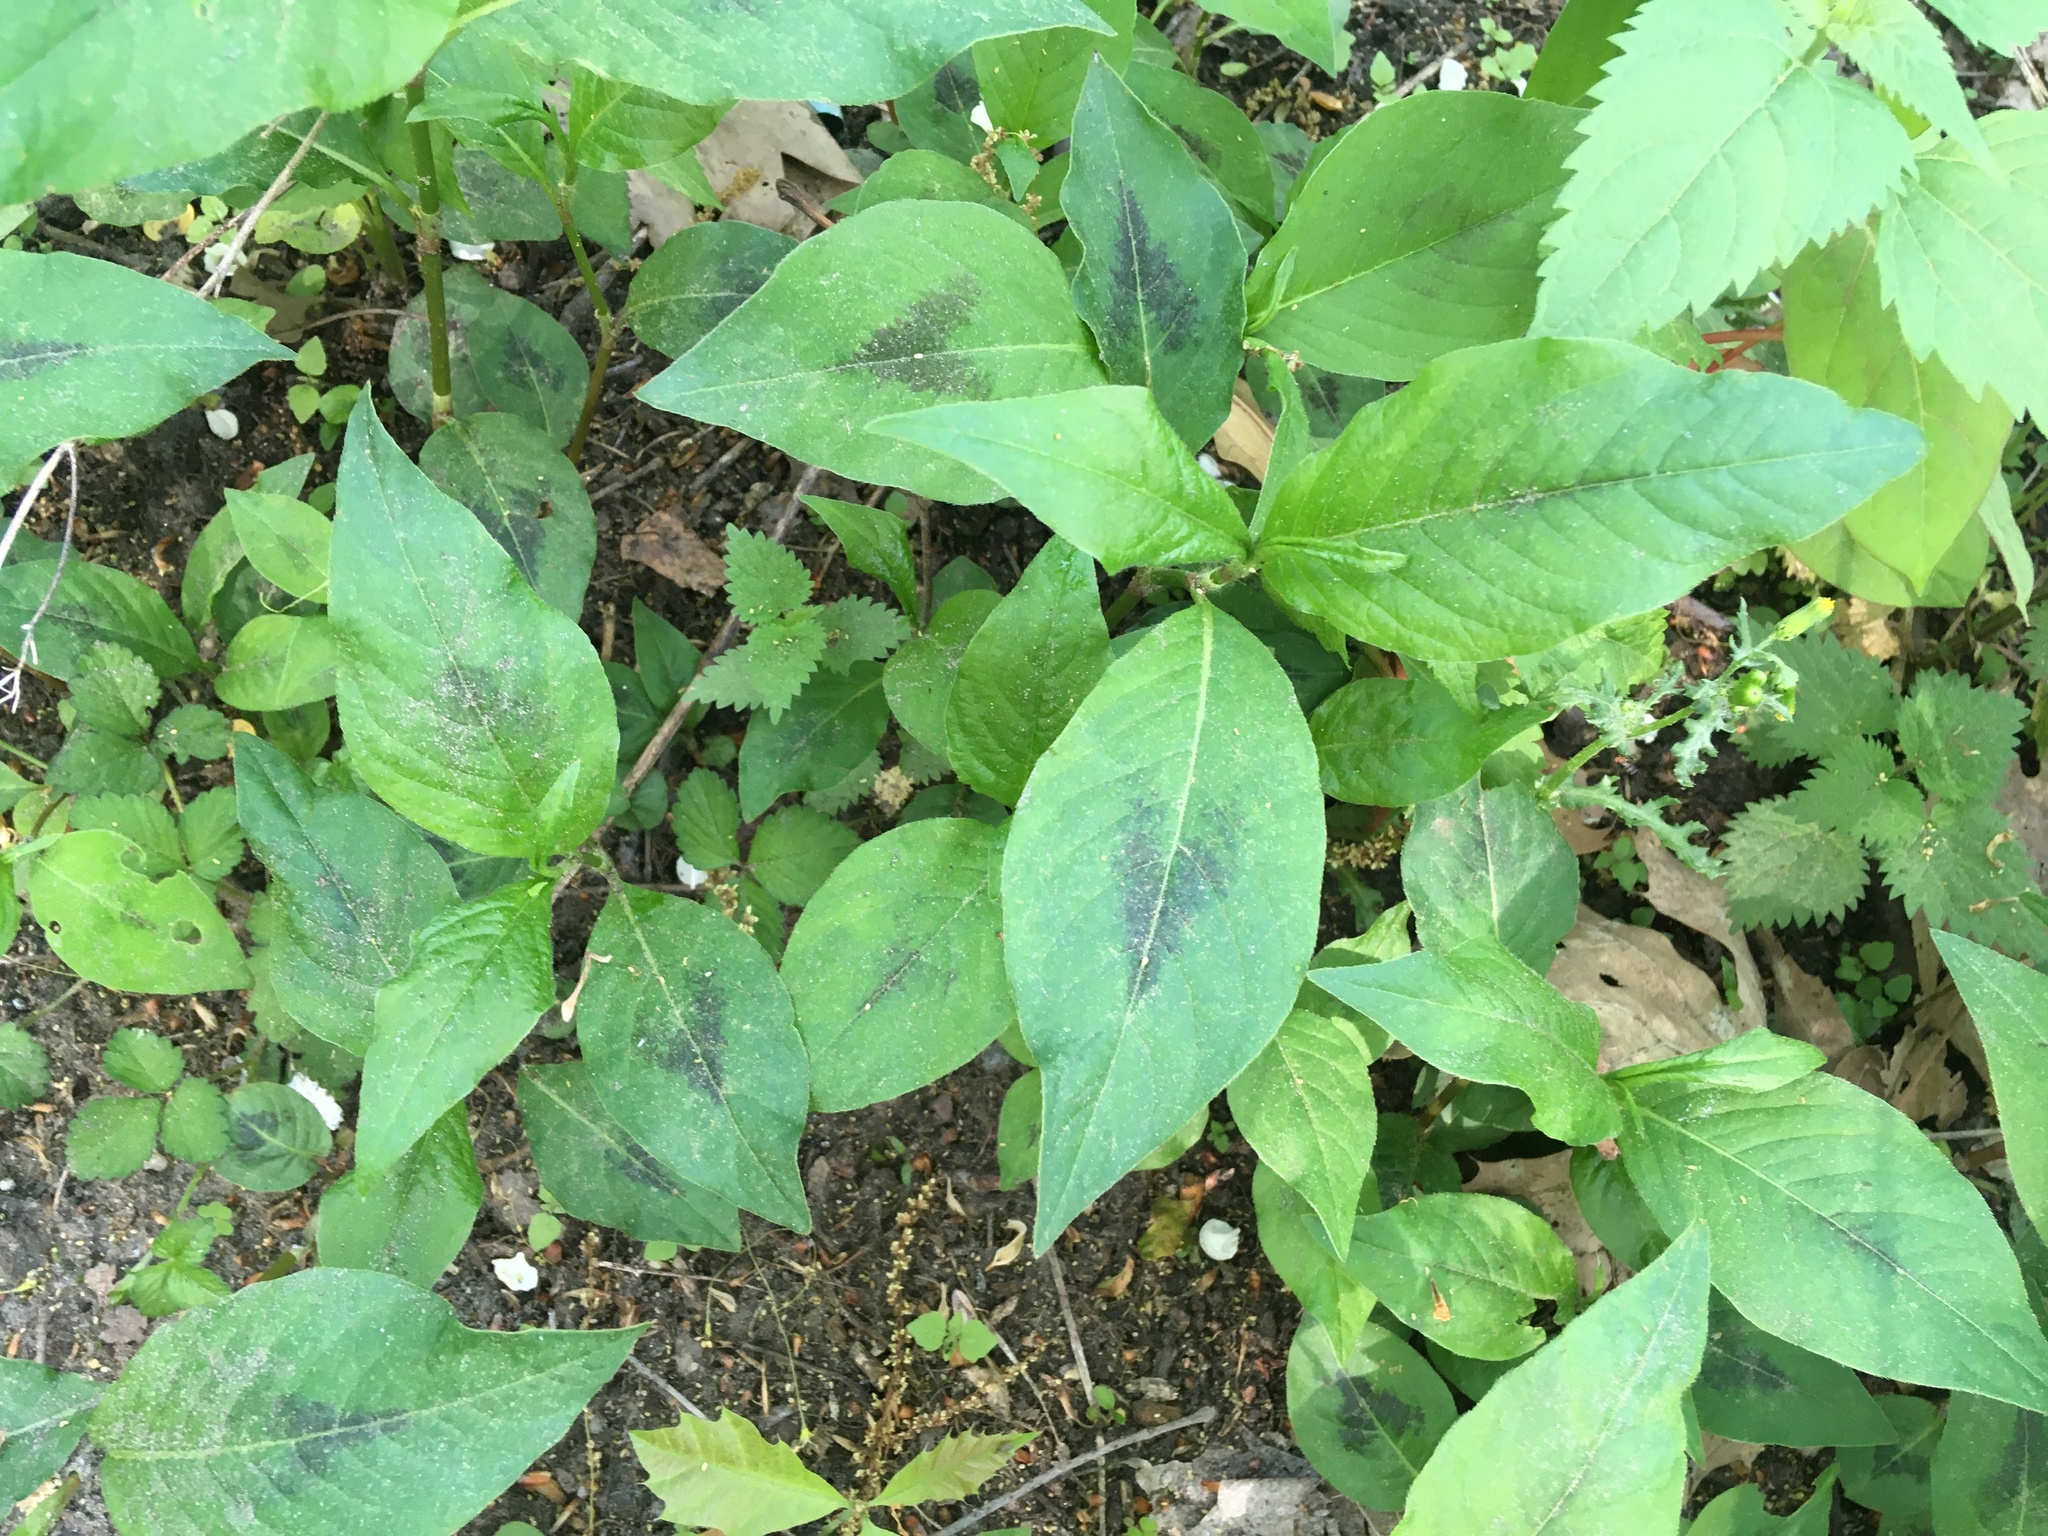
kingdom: Plantae
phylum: Tracheophyta
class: Magnoliopsida
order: Caryophyllales
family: Polygonaceae
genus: Persicaria
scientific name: Persicaria virginiana
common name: Jumpseed
